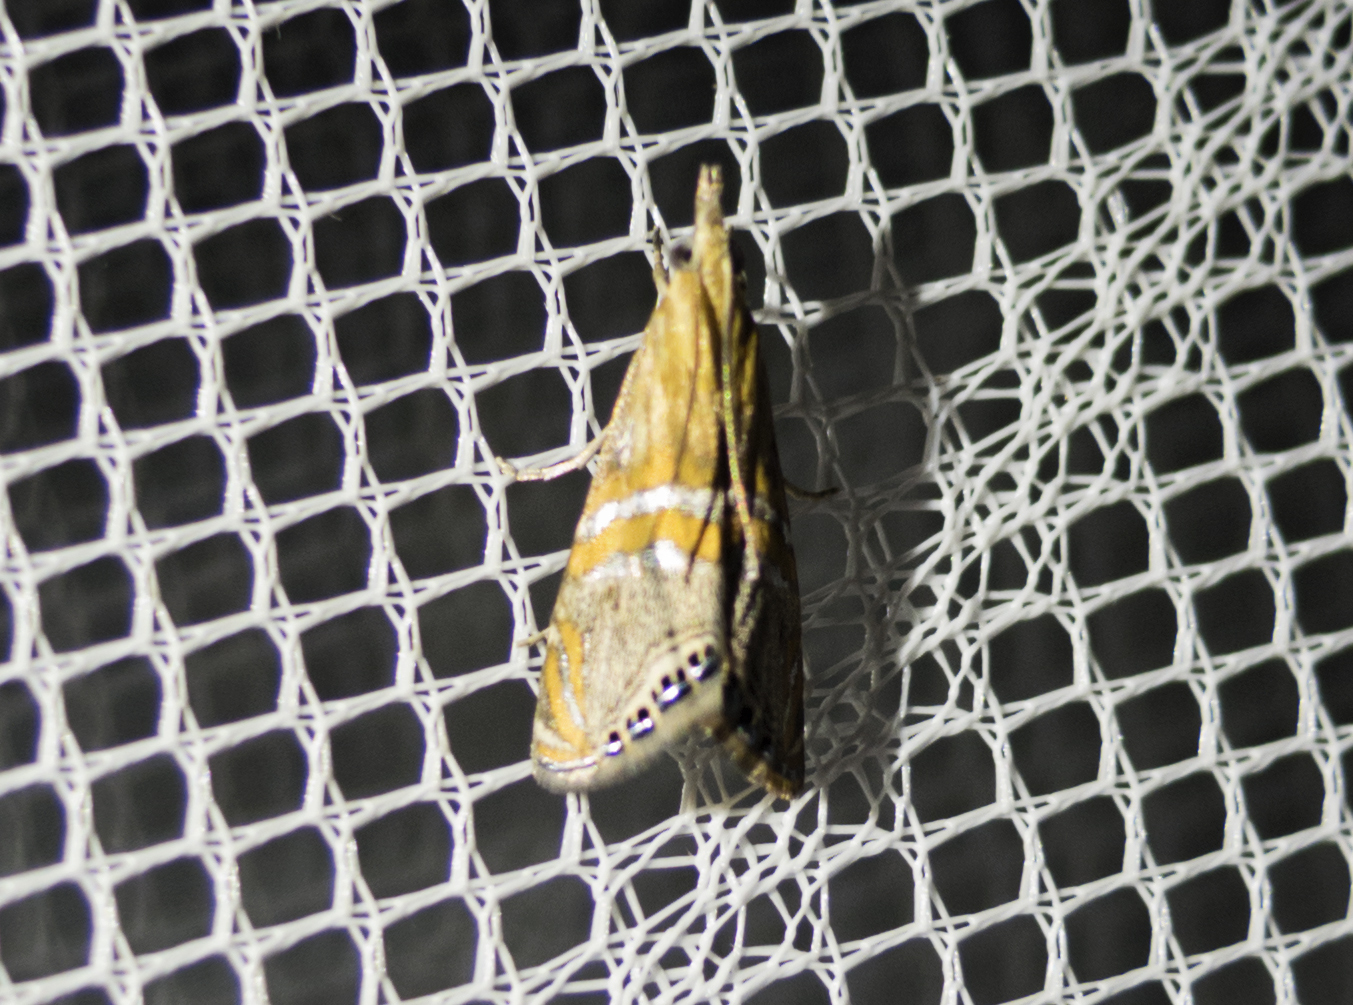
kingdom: Animalia
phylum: Arthropoda
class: Insecta
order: Lepidoptera
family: Crambidae
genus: Euchromius
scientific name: Euchromius bella
